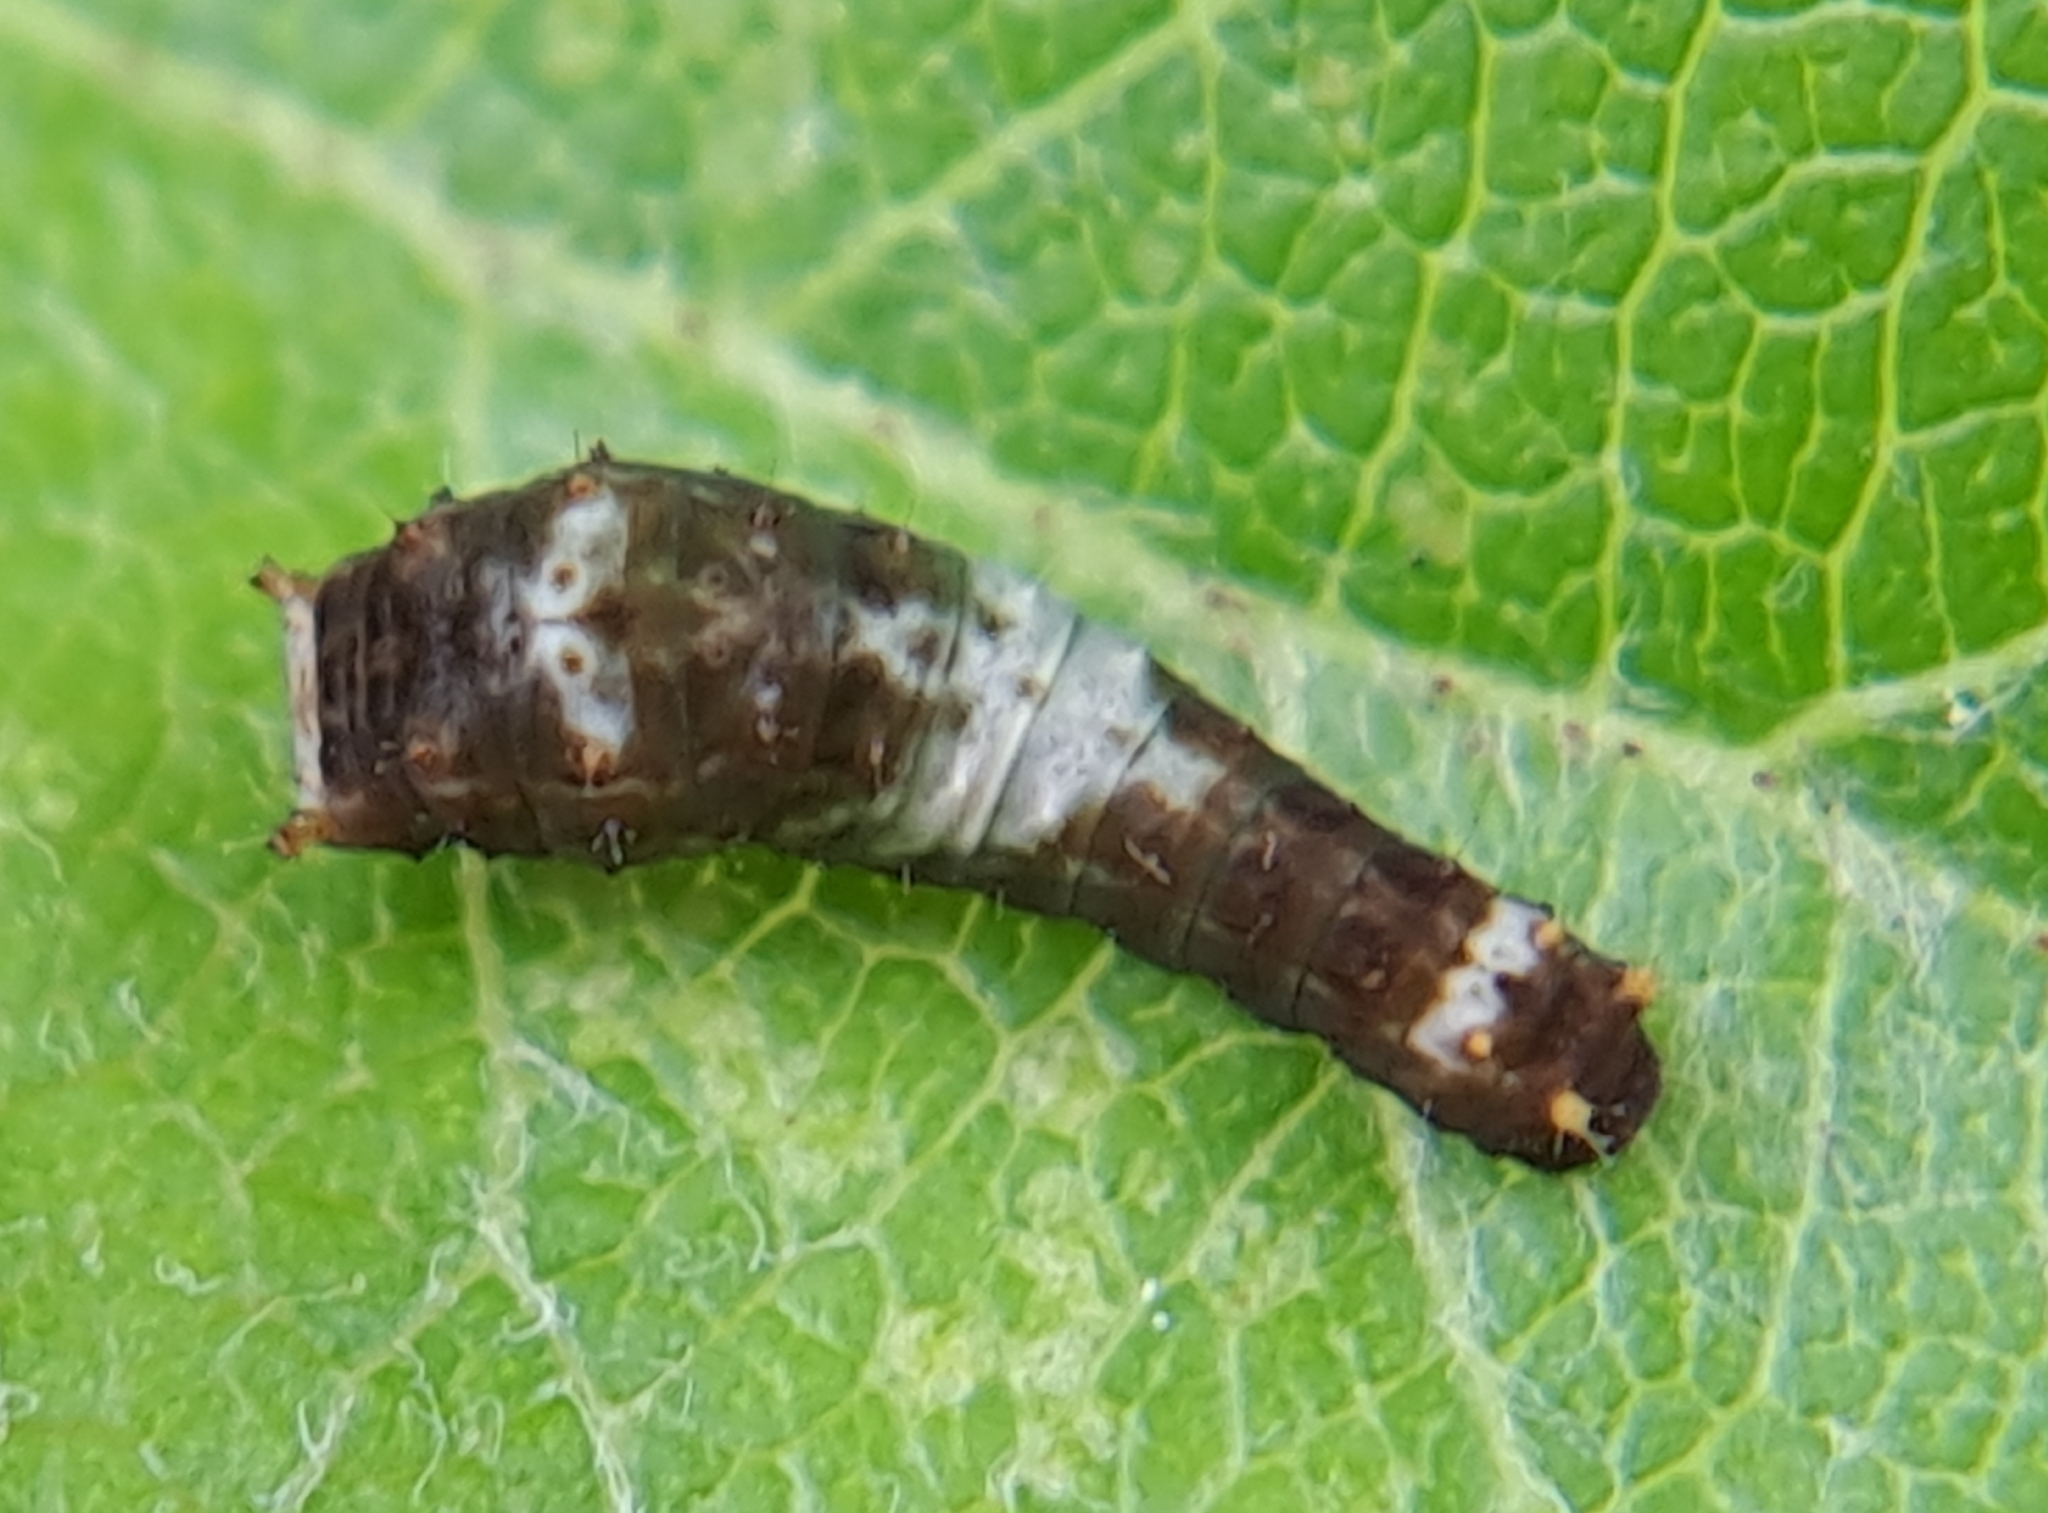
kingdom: Animalia
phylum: Arthropoda
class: Insecta
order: Lepidoptera
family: Papilionidae
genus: Papilio
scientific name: Papilio canadensis
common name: Canadian tiger swallowtail
